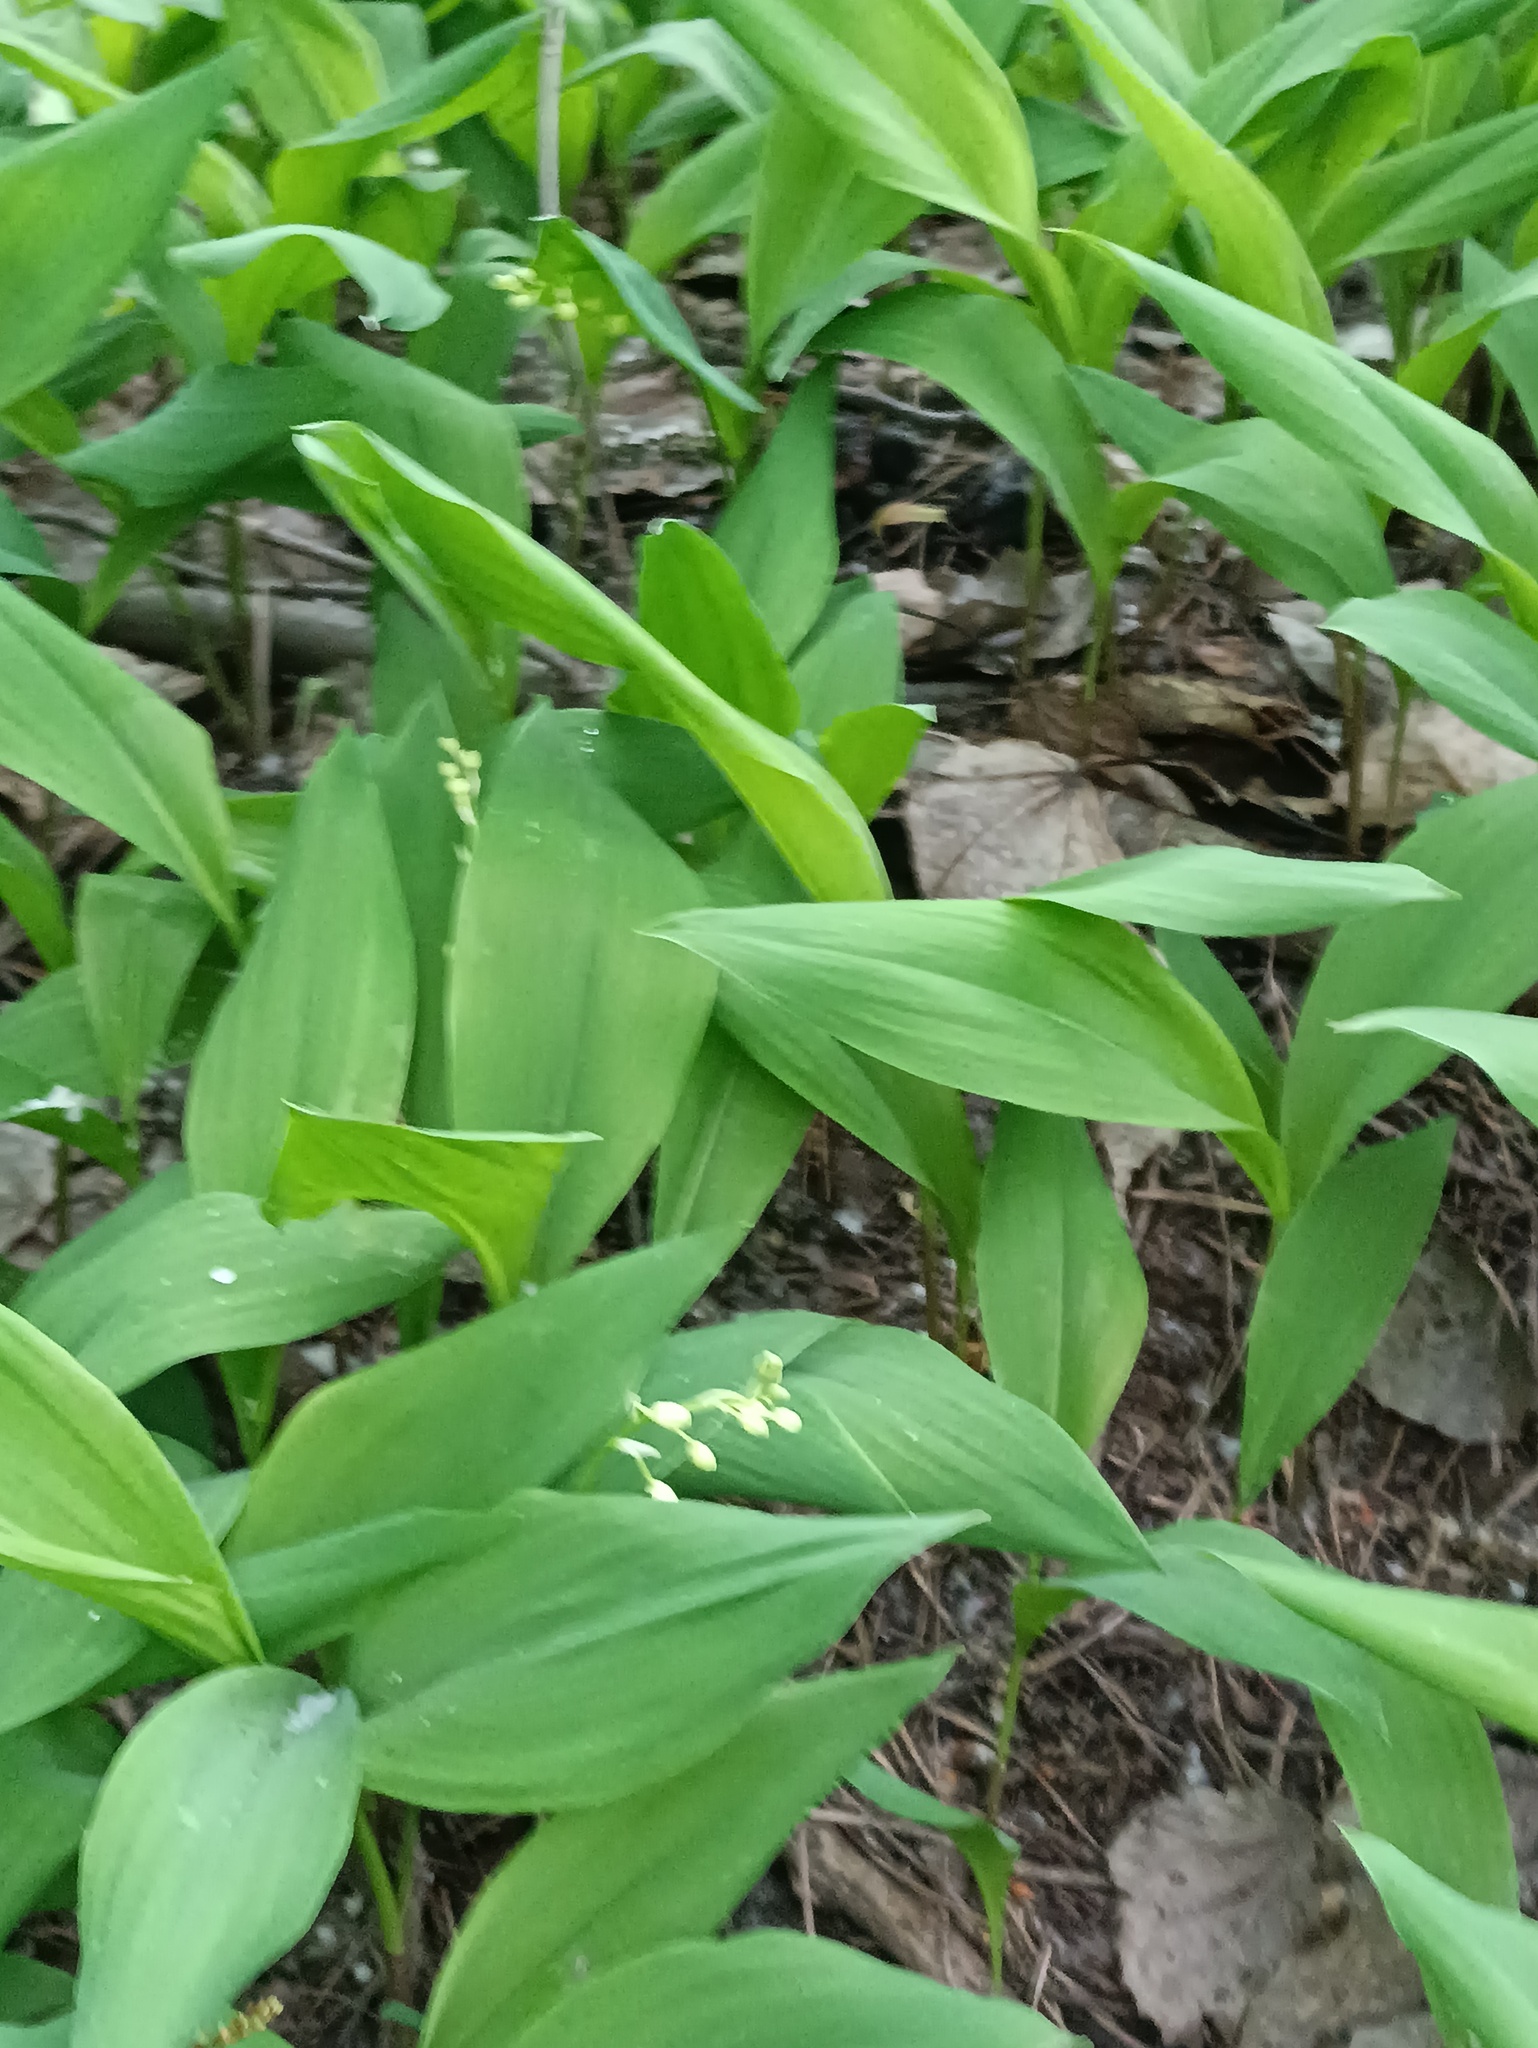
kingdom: Plantae
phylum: Tracheophyta
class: Liliopsida
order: Asparagales
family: Asparagaceae
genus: Convallaria
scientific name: Convallaria majalis
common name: Lily-of-the-valley
